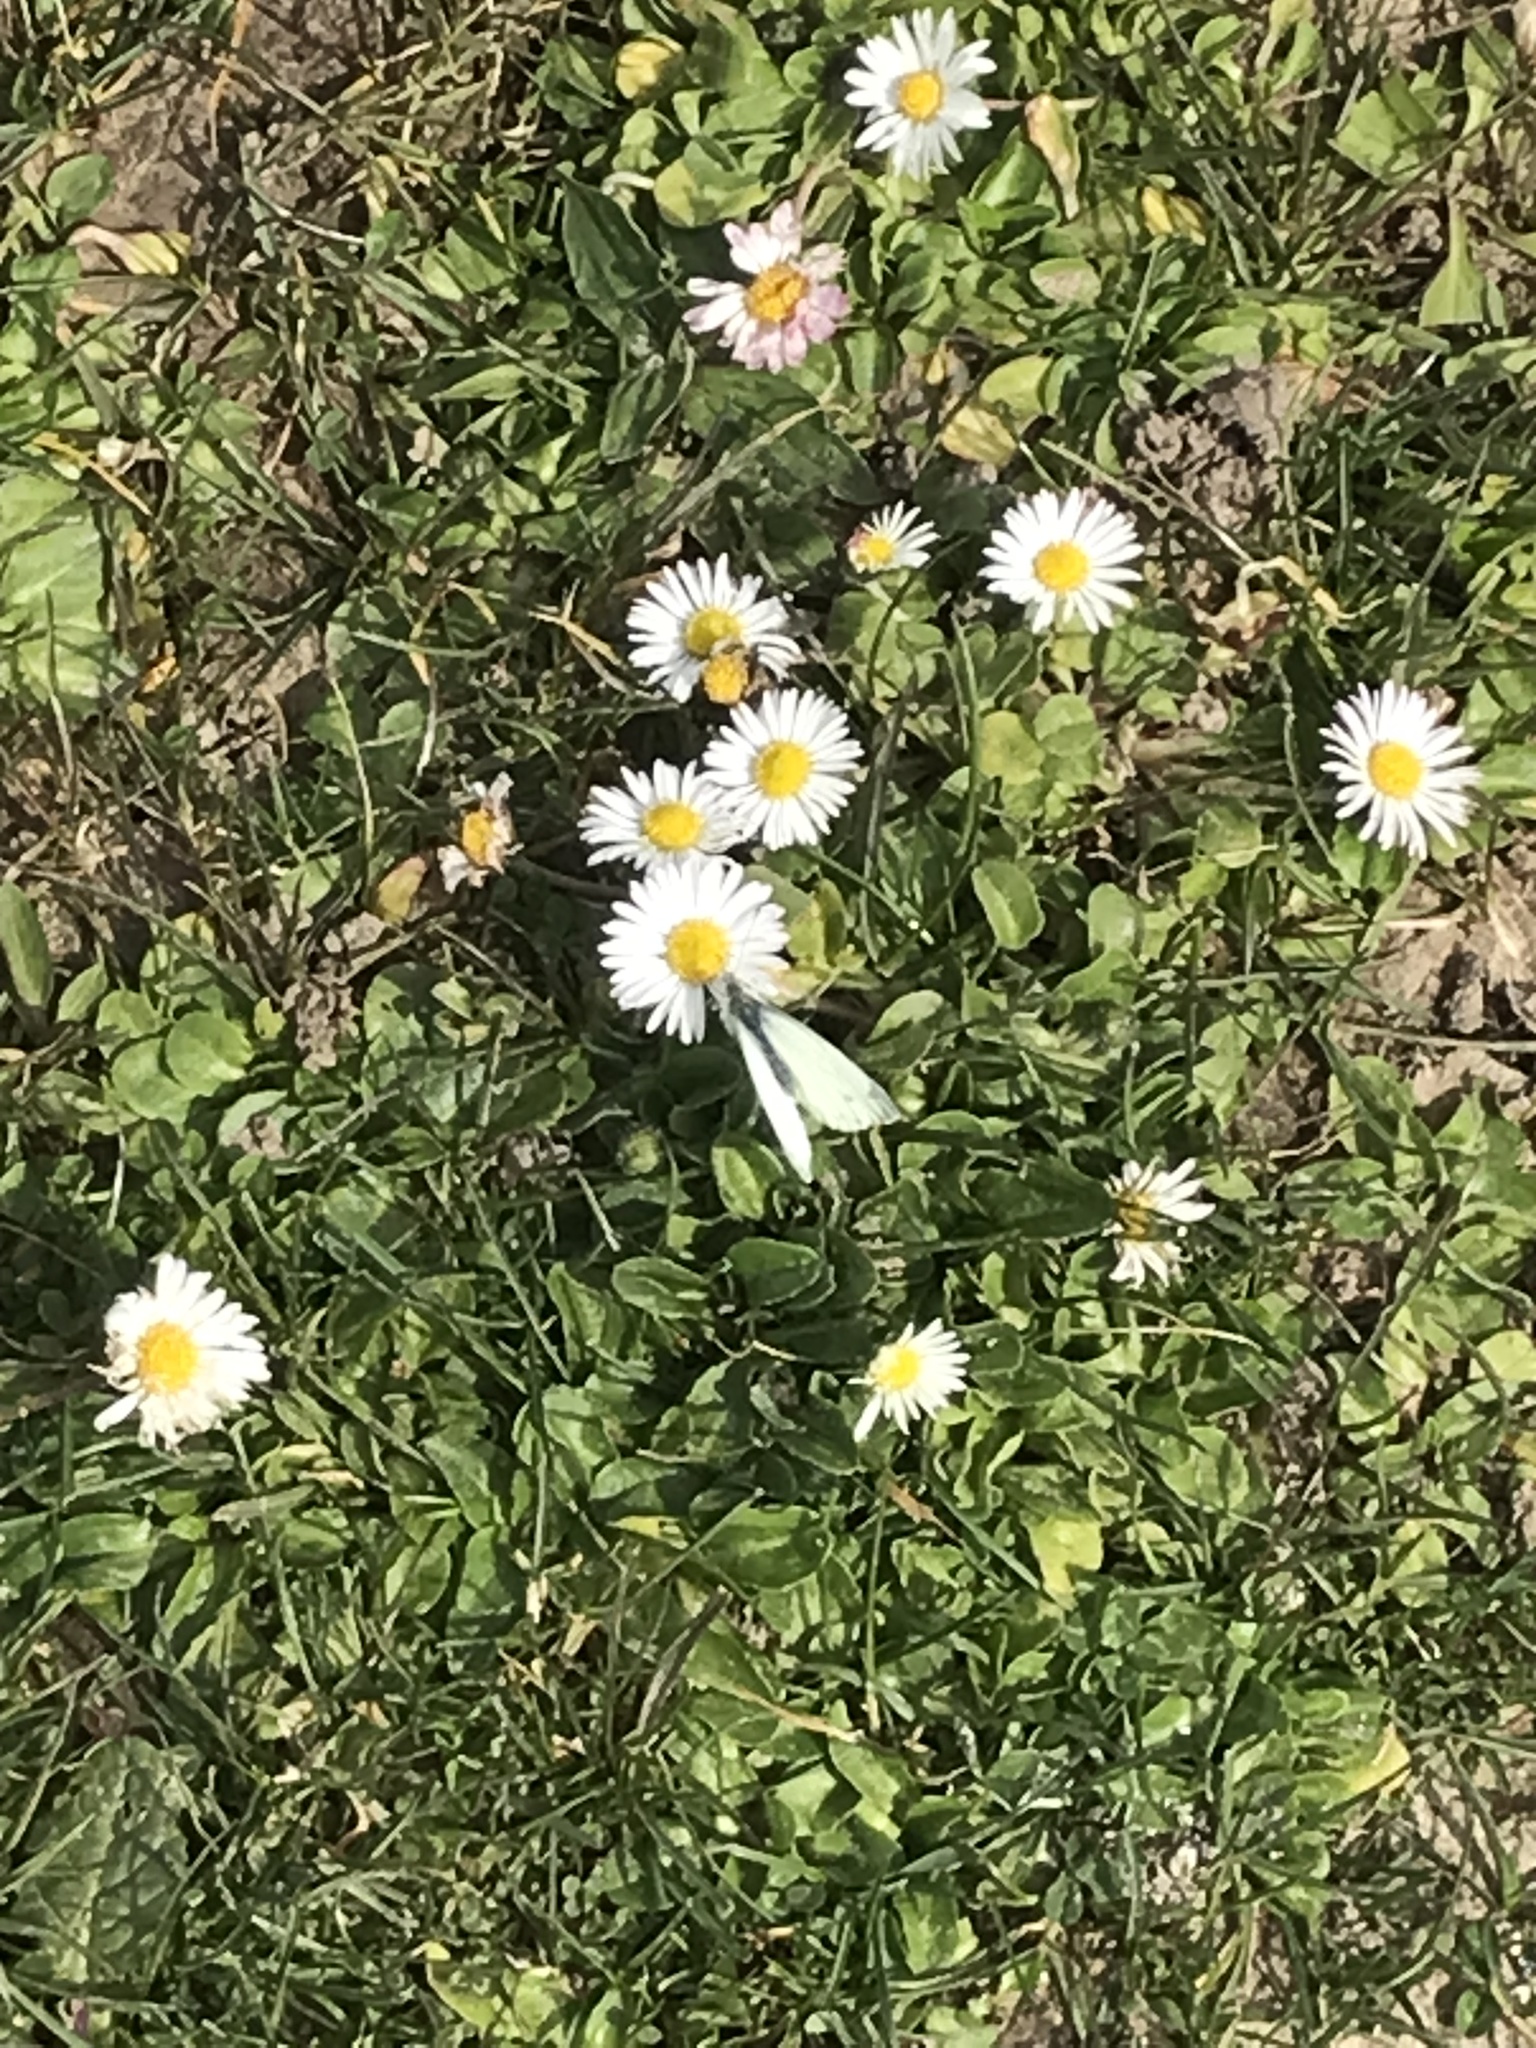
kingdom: Animalia
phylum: Arthropoda
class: Insecta
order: Lepidoptera
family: Pieridae
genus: Pieris
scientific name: Pieris napi
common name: Green-veined white
